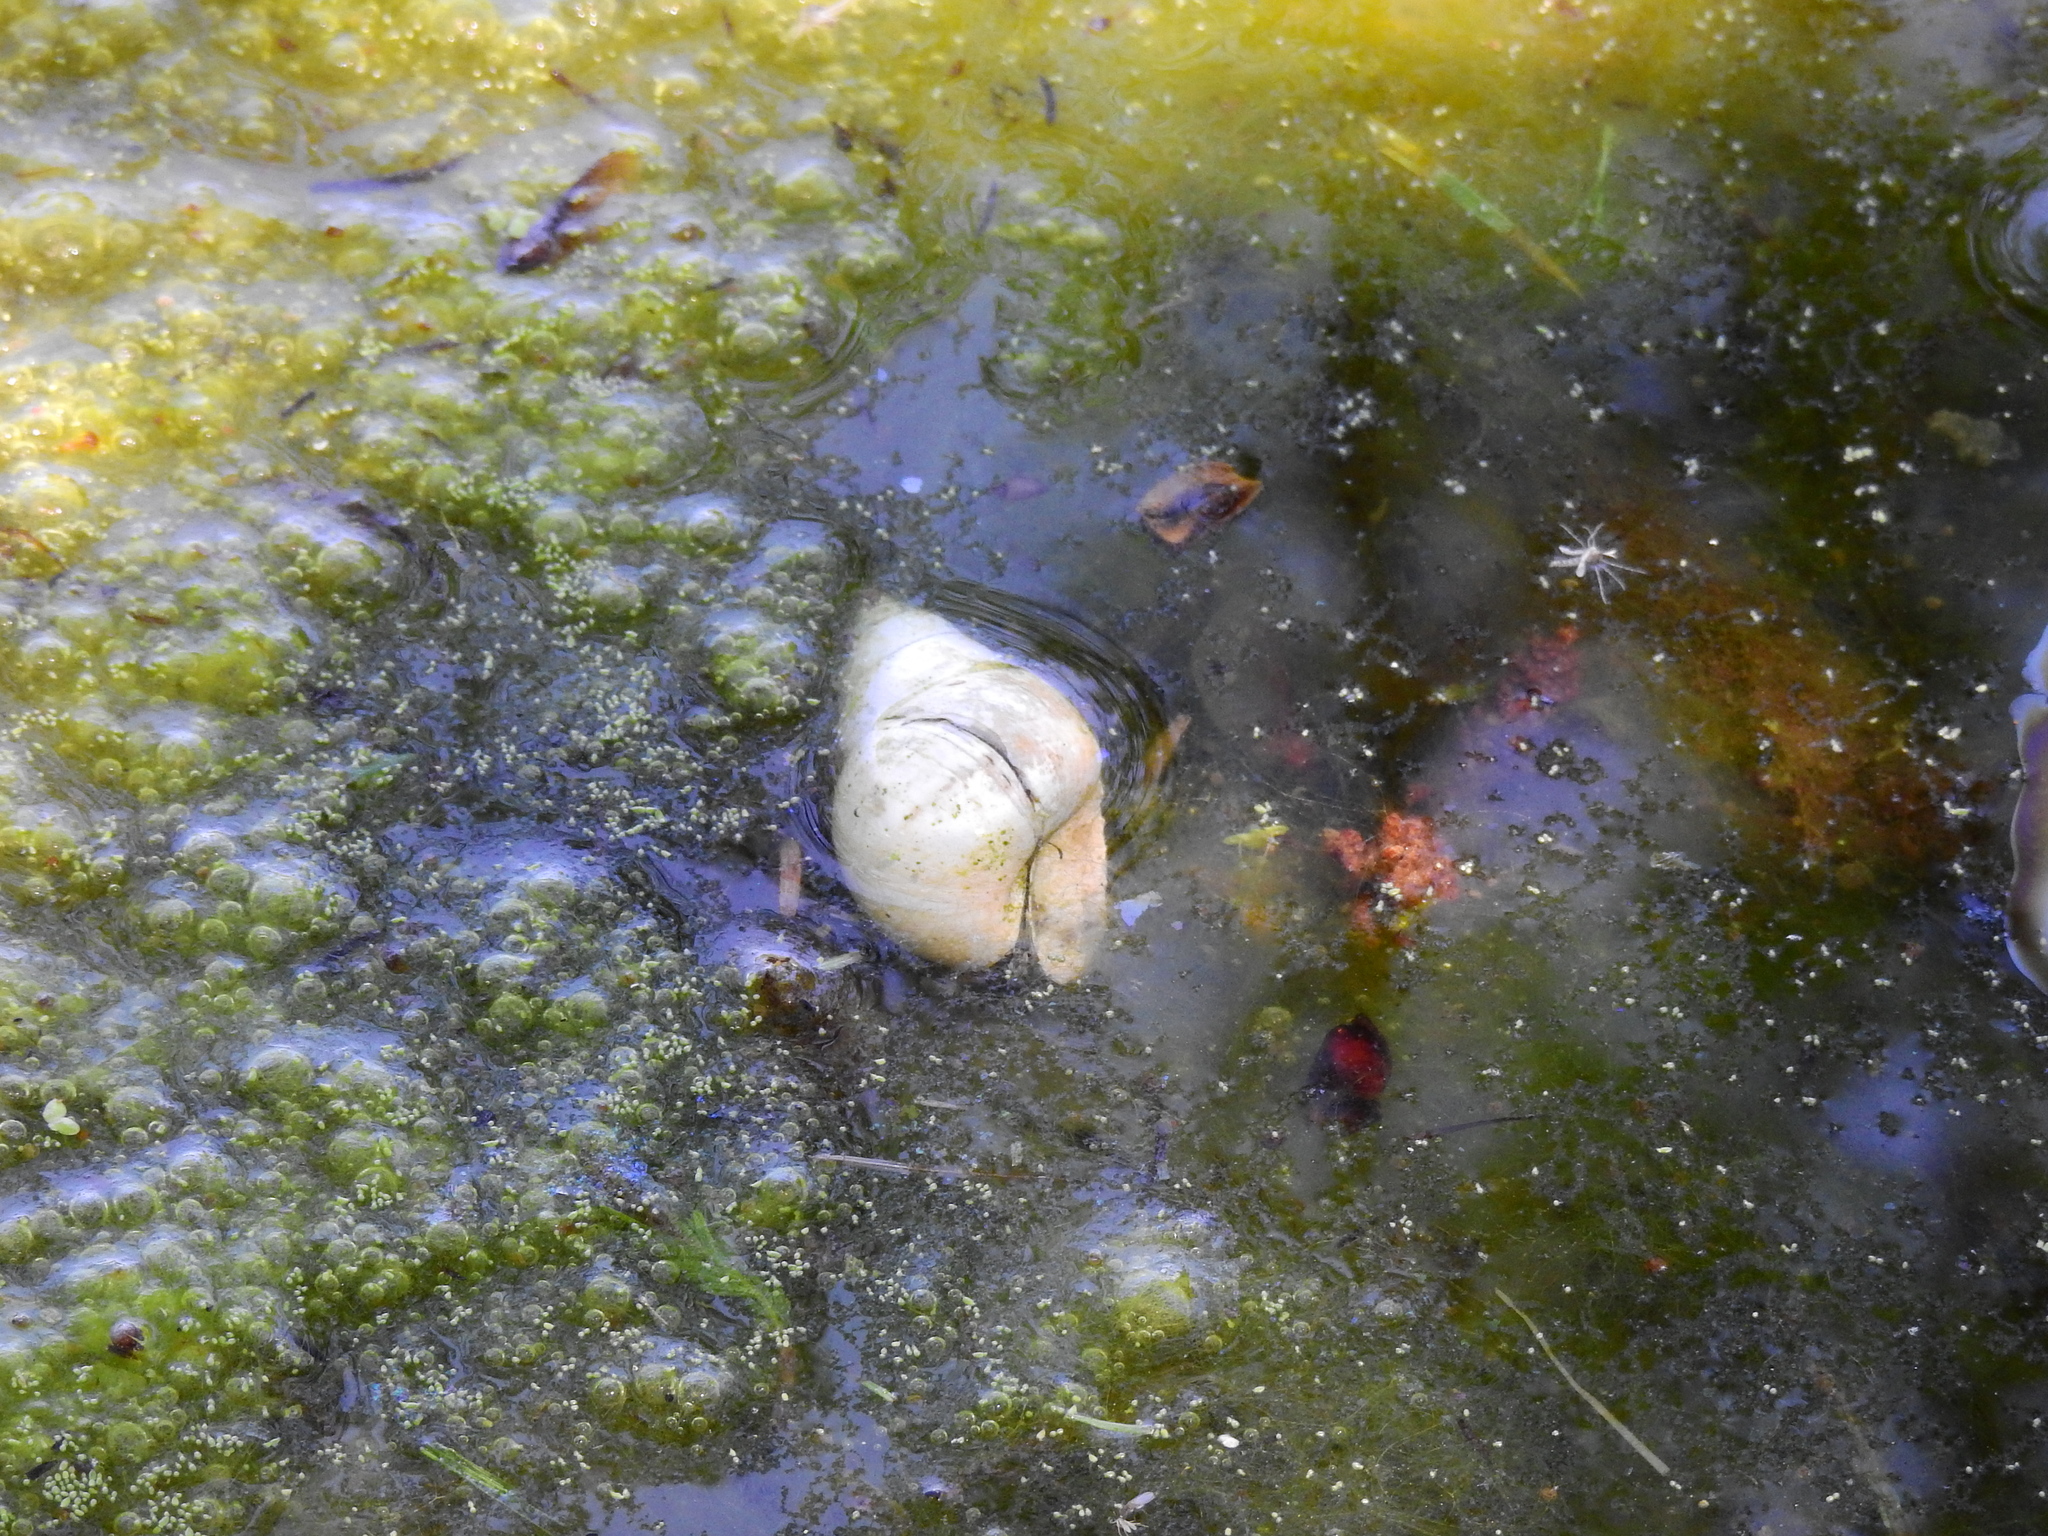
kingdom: Animalia
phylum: Mollusca
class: Gastropoda
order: Architaenioglossa
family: Viviparidae
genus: Cipangopaludina
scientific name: Cipangopaludina chinensis
